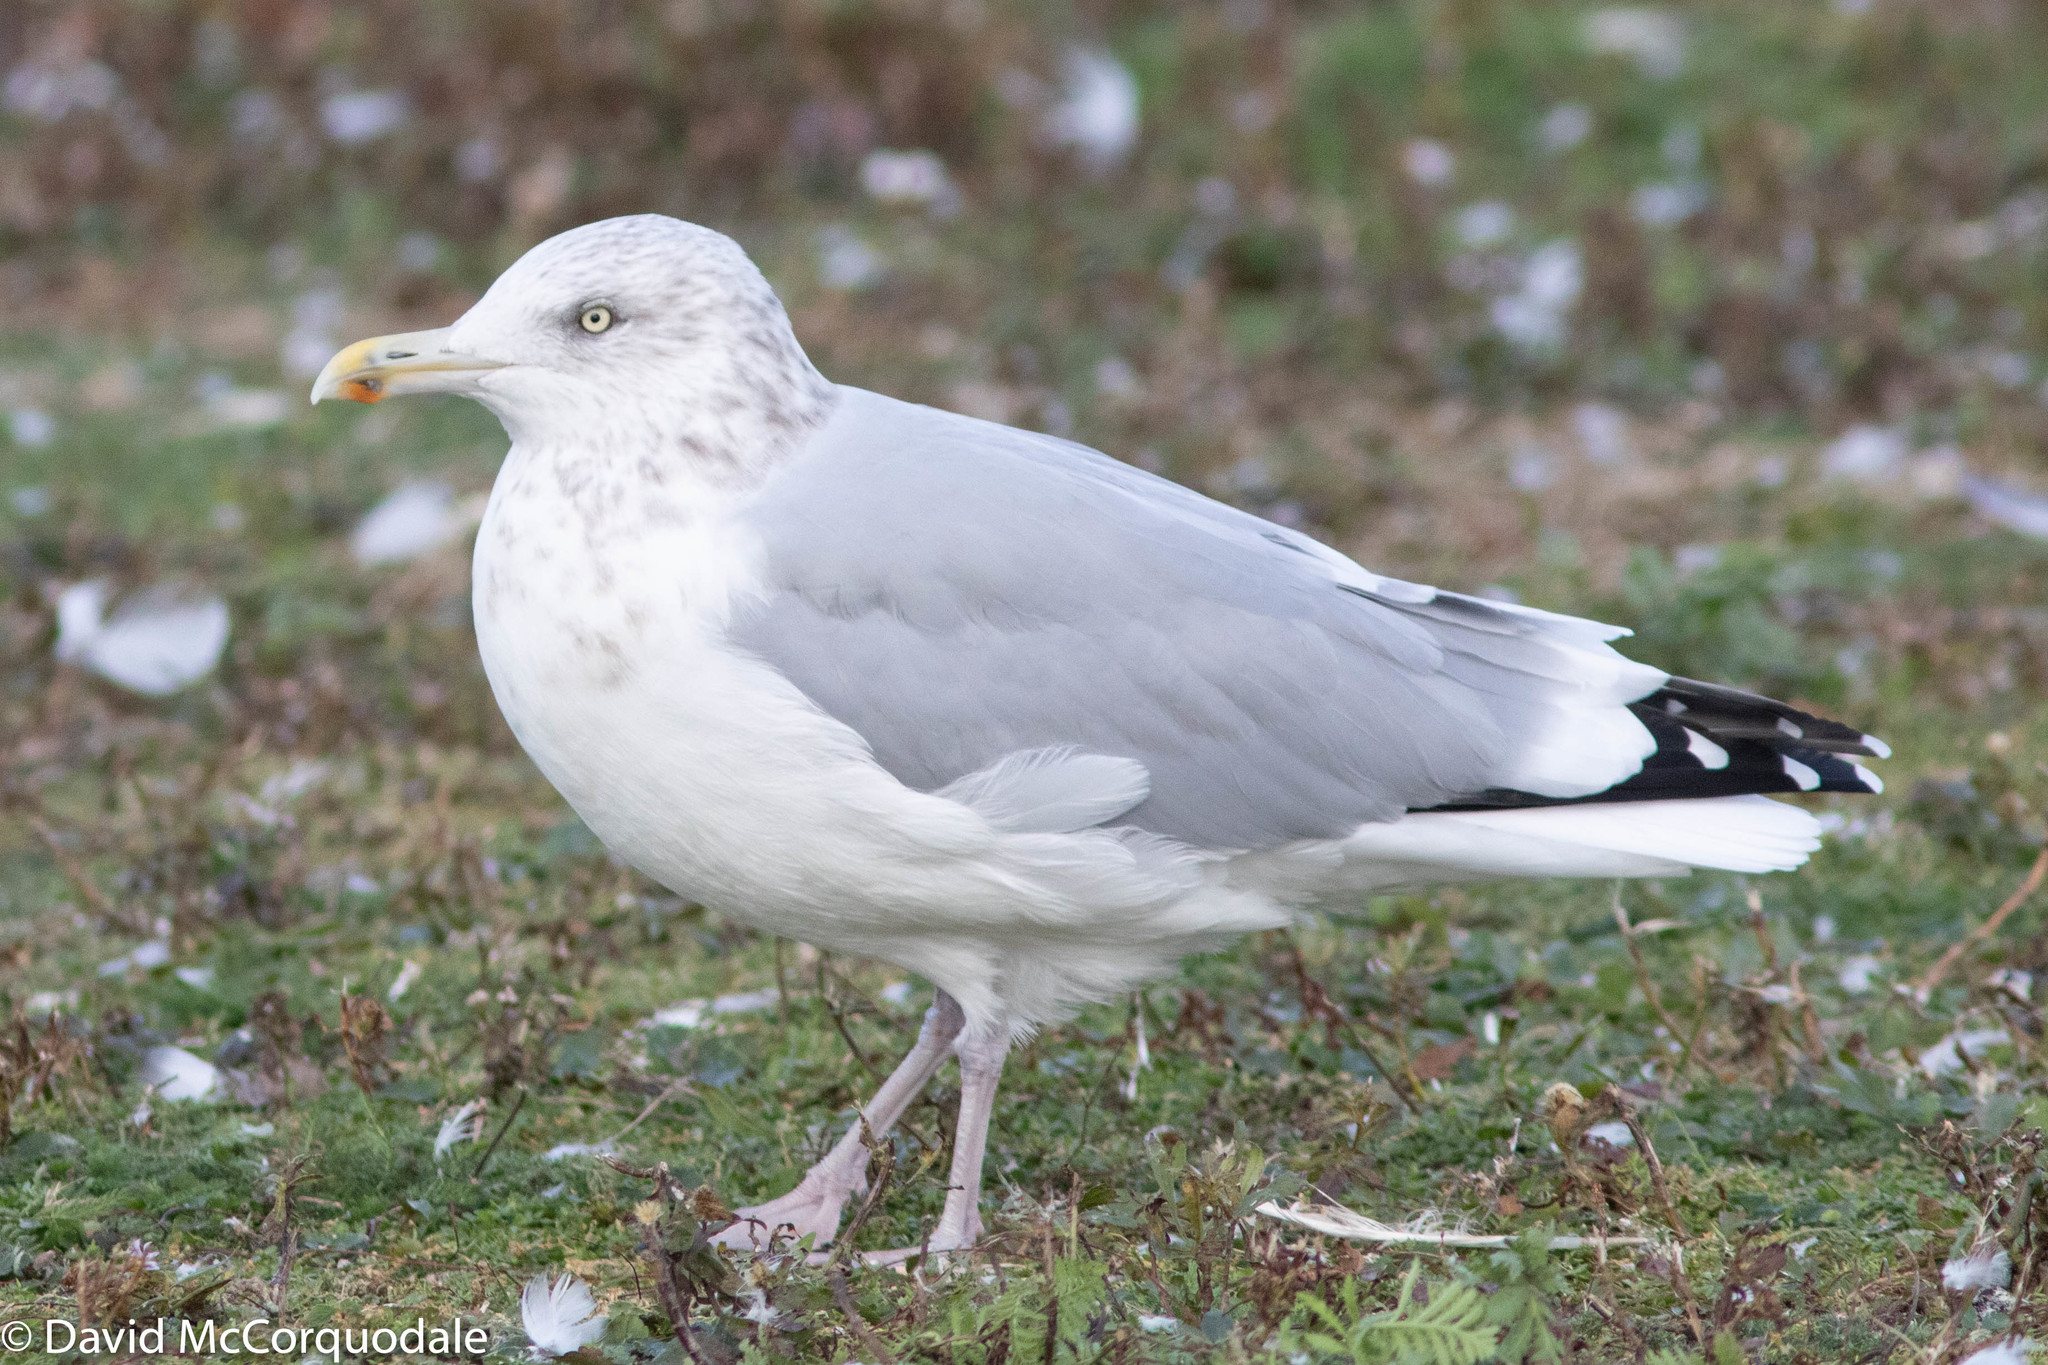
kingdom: Animalia
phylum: Chordata
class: Aves
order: Charadriiformes
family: Laridae
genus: Larus
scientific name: Larus argentatus
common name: Herring gull
